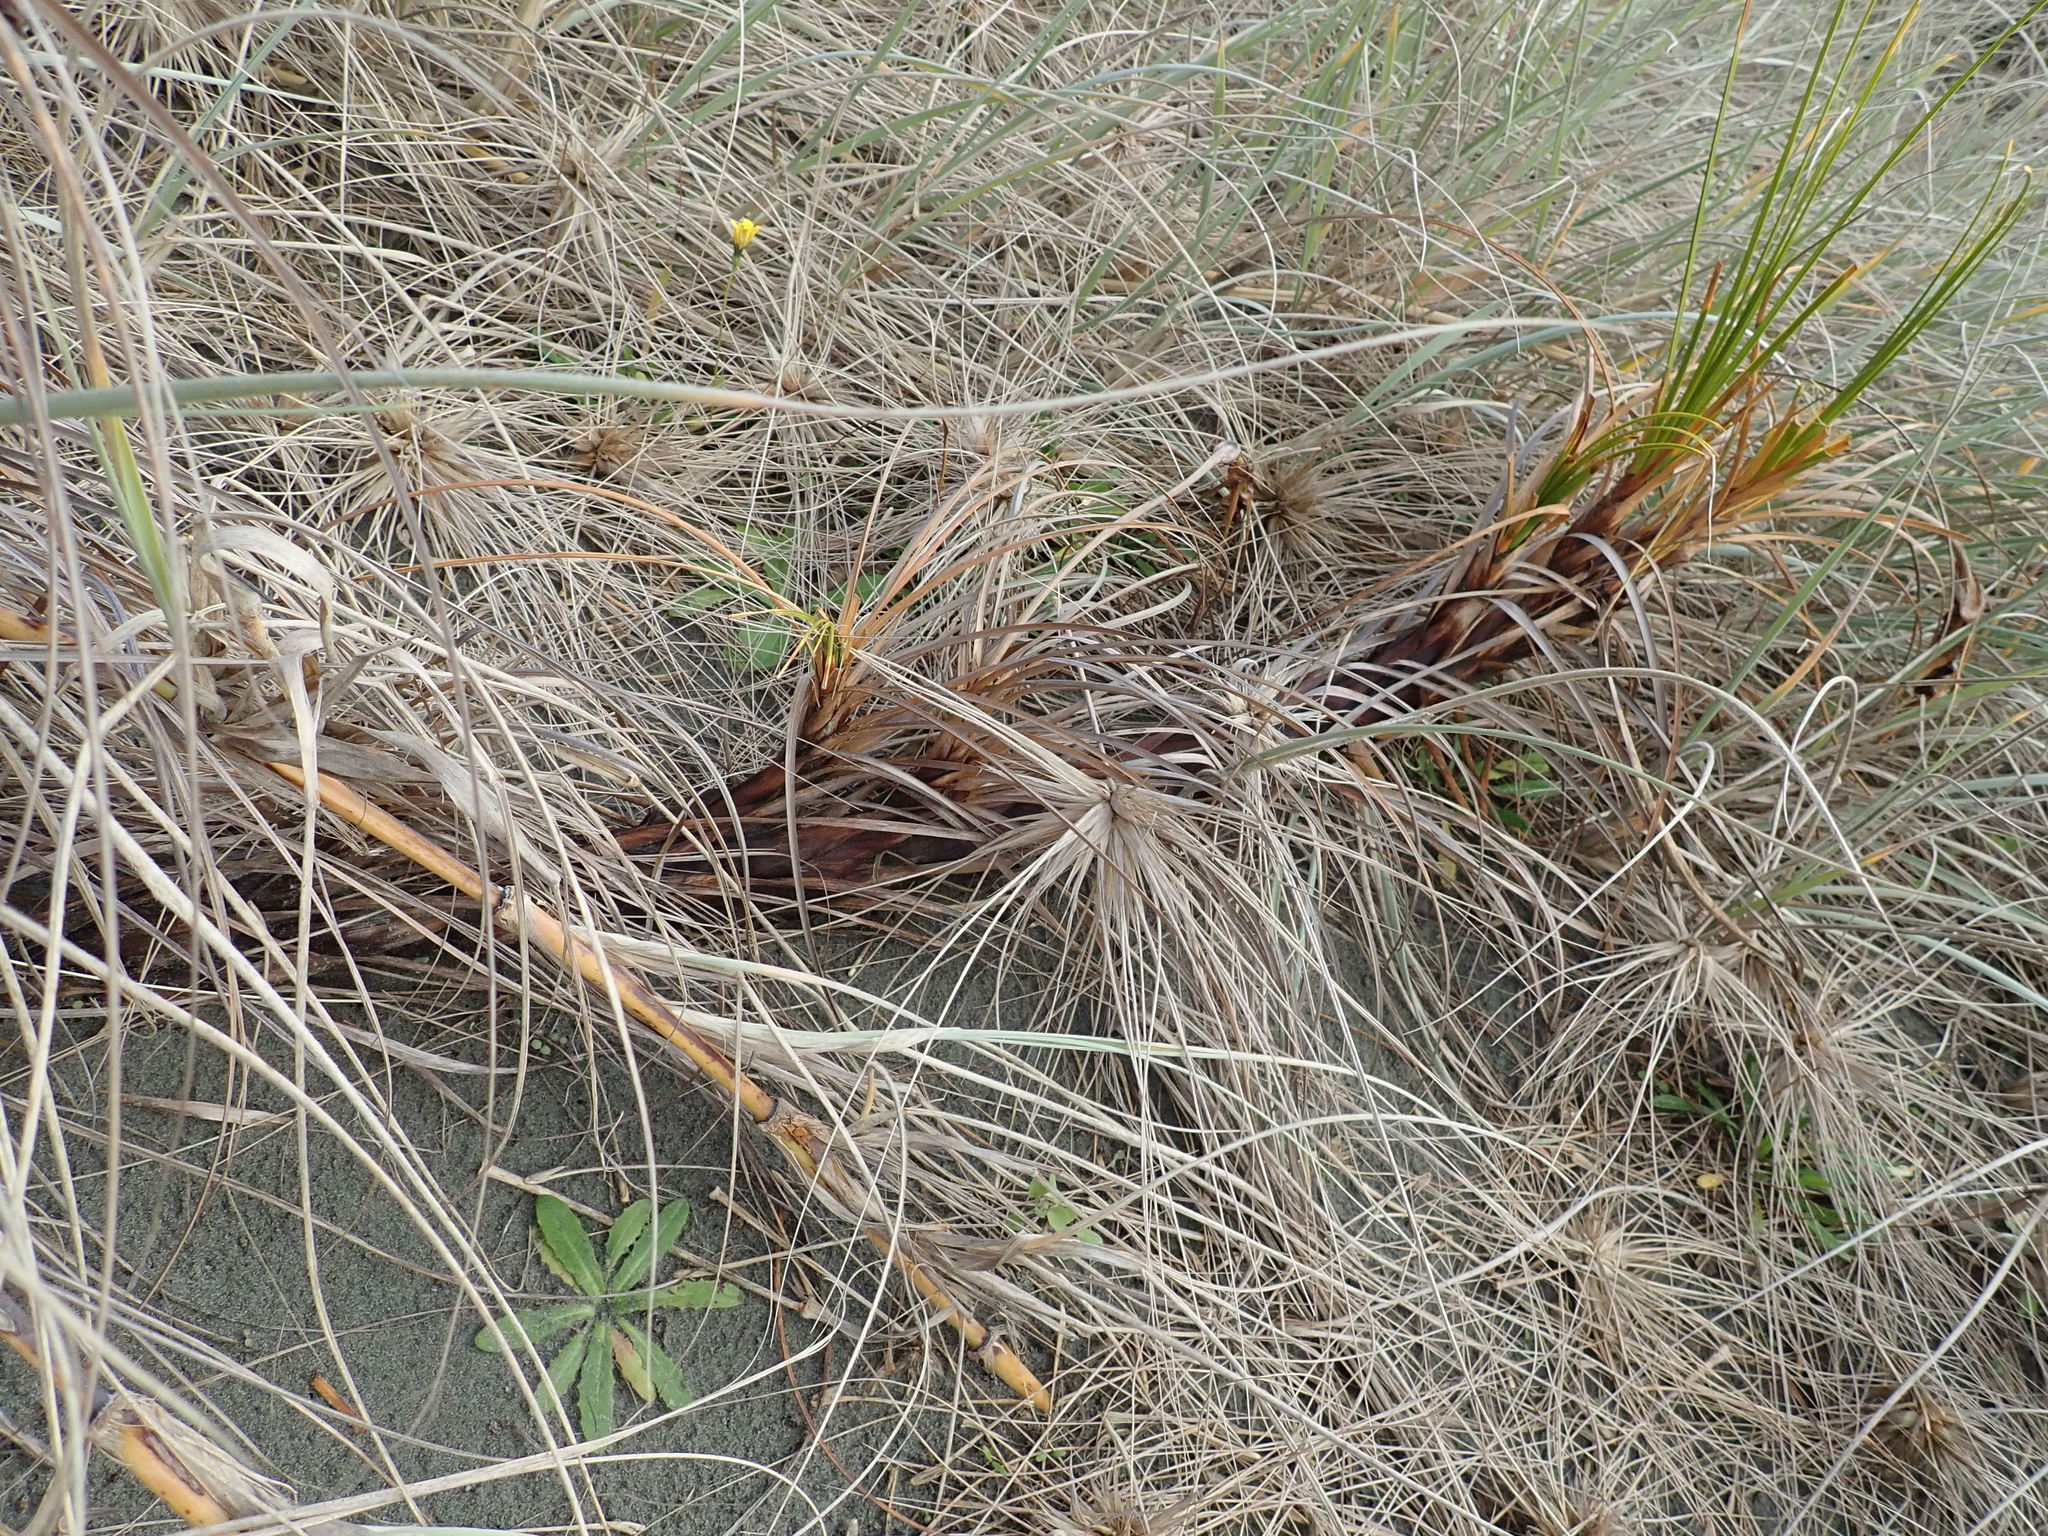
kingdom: Plantae
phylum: Tracheophyta
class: Liliopsida
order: Poales
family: Cyperaceae
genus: Ficinia
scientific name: Ficinia spiralis
